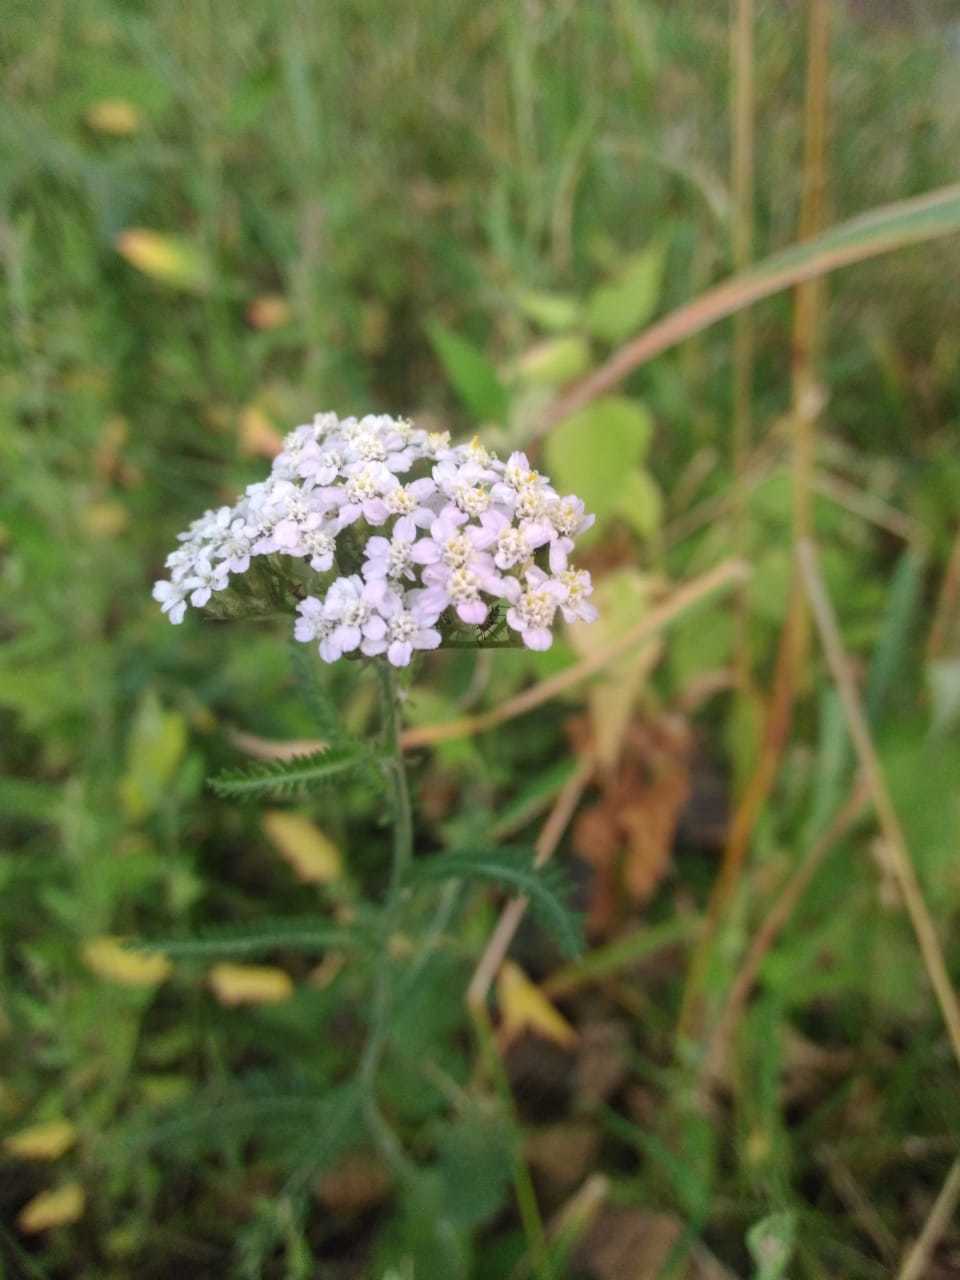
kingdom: Plantae
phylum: Tracheophyta
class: Magnoliopsida
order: Asterales
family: Asteraceae
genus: Achillea
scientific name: Achillea millefolium
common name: Yarrow
